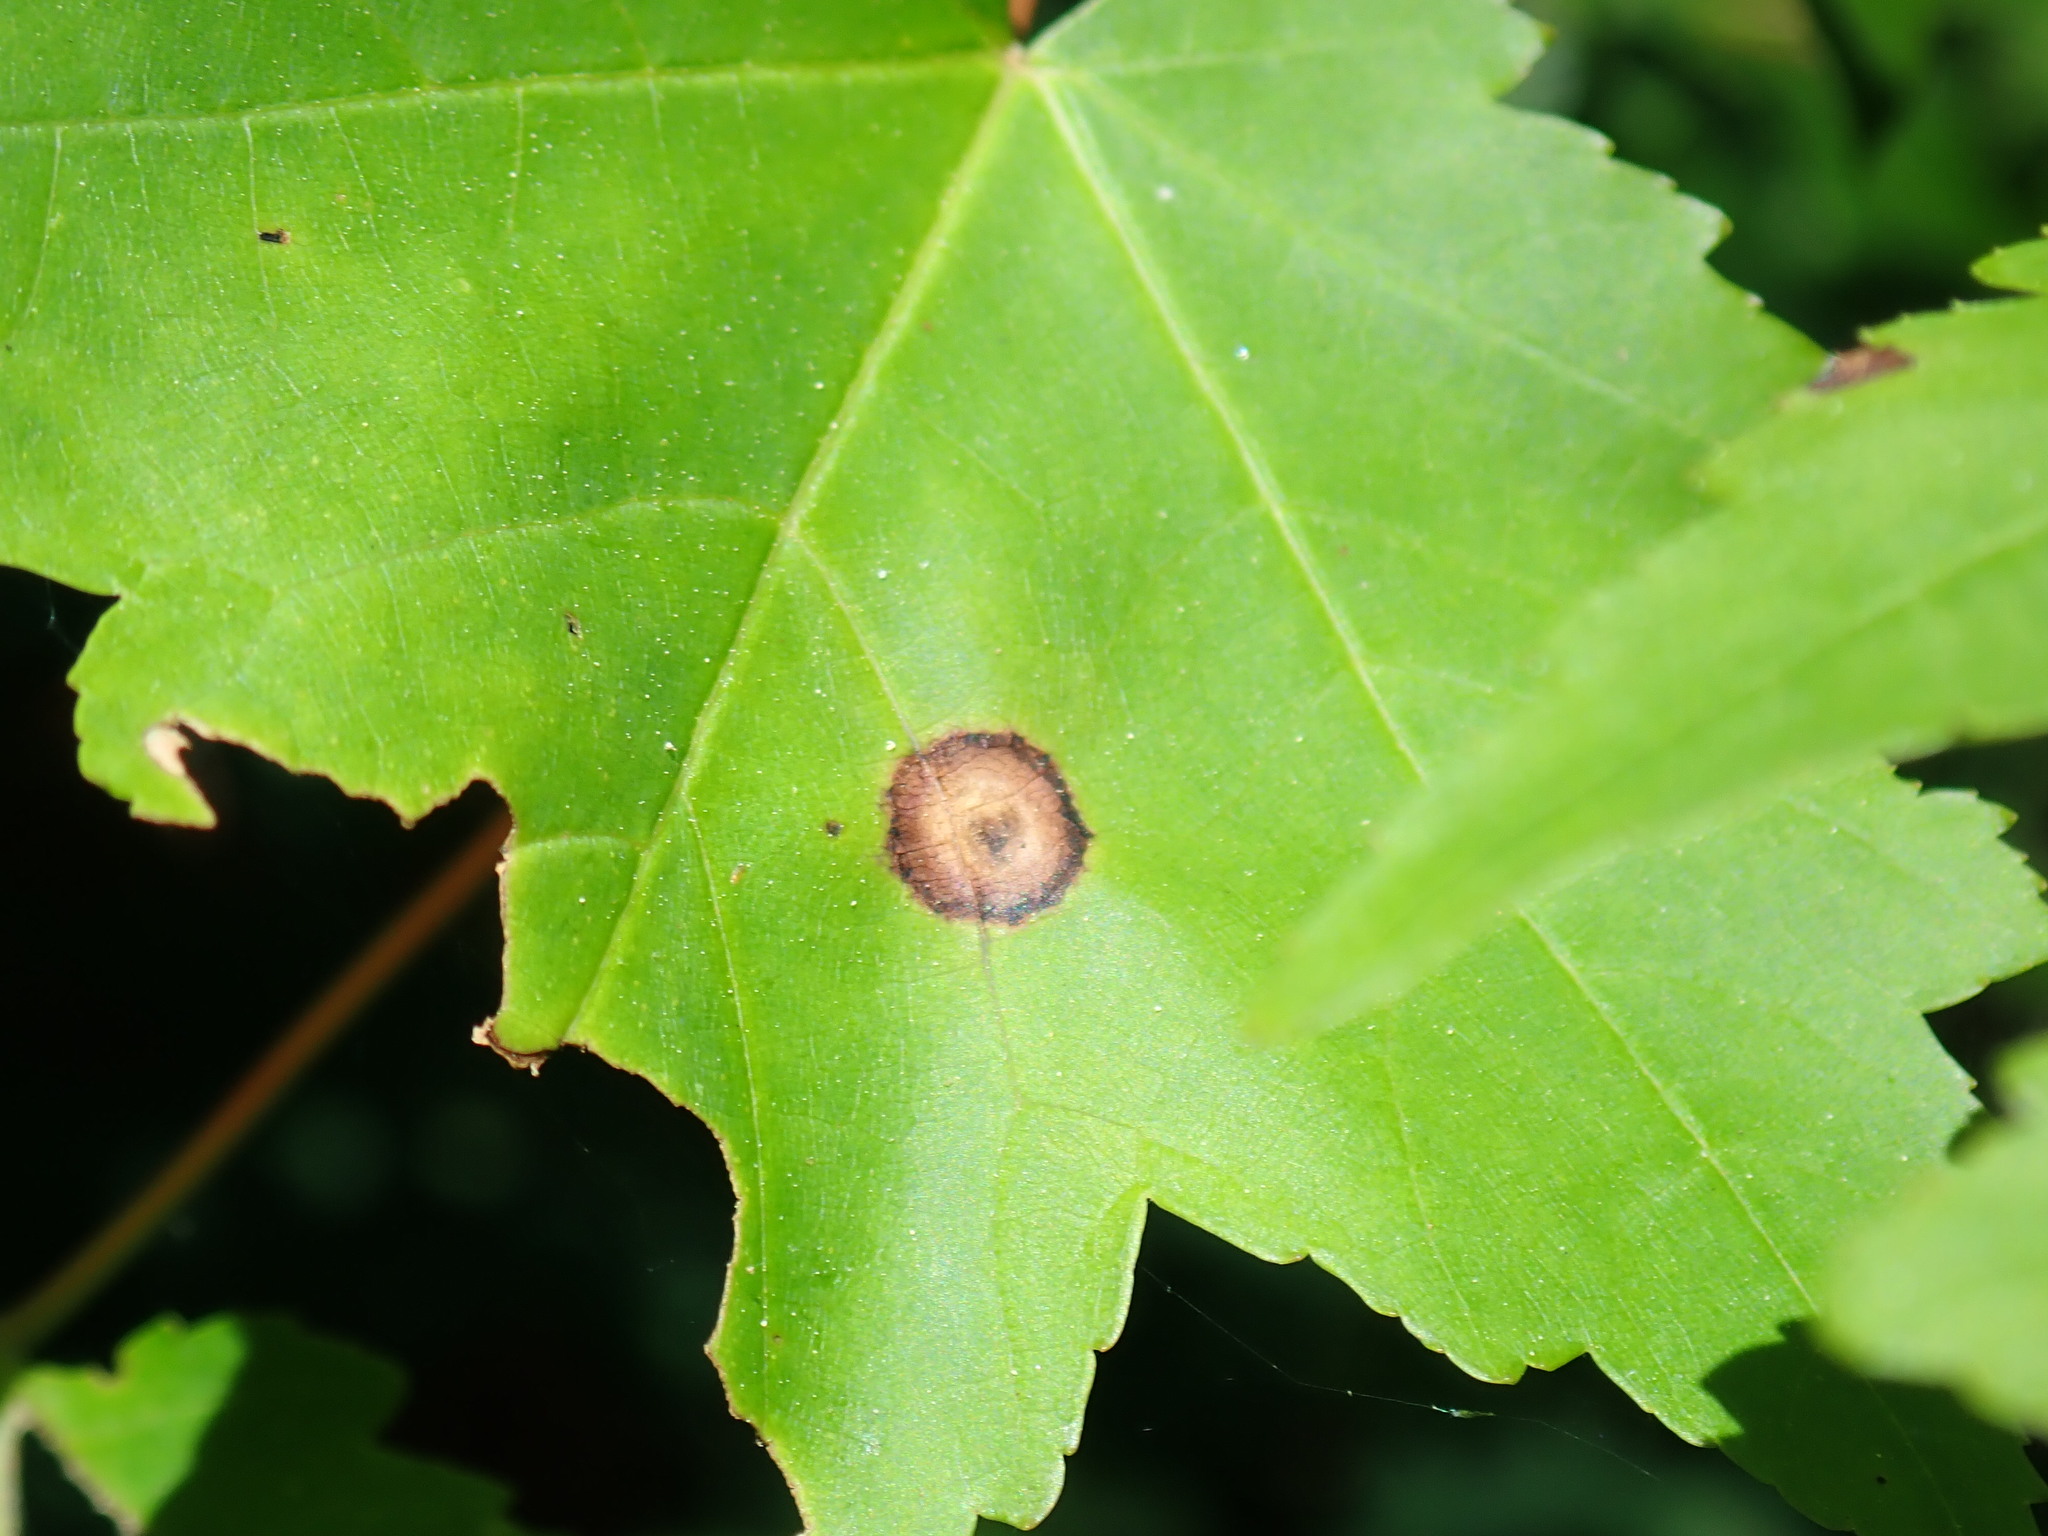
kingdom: Animalia
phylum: Arthropoda
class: Insecta
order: Diptera
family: Cecidomyiidae
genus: Acericecis
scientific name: Acericecis ocellaris
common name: Ocellate gall midge
